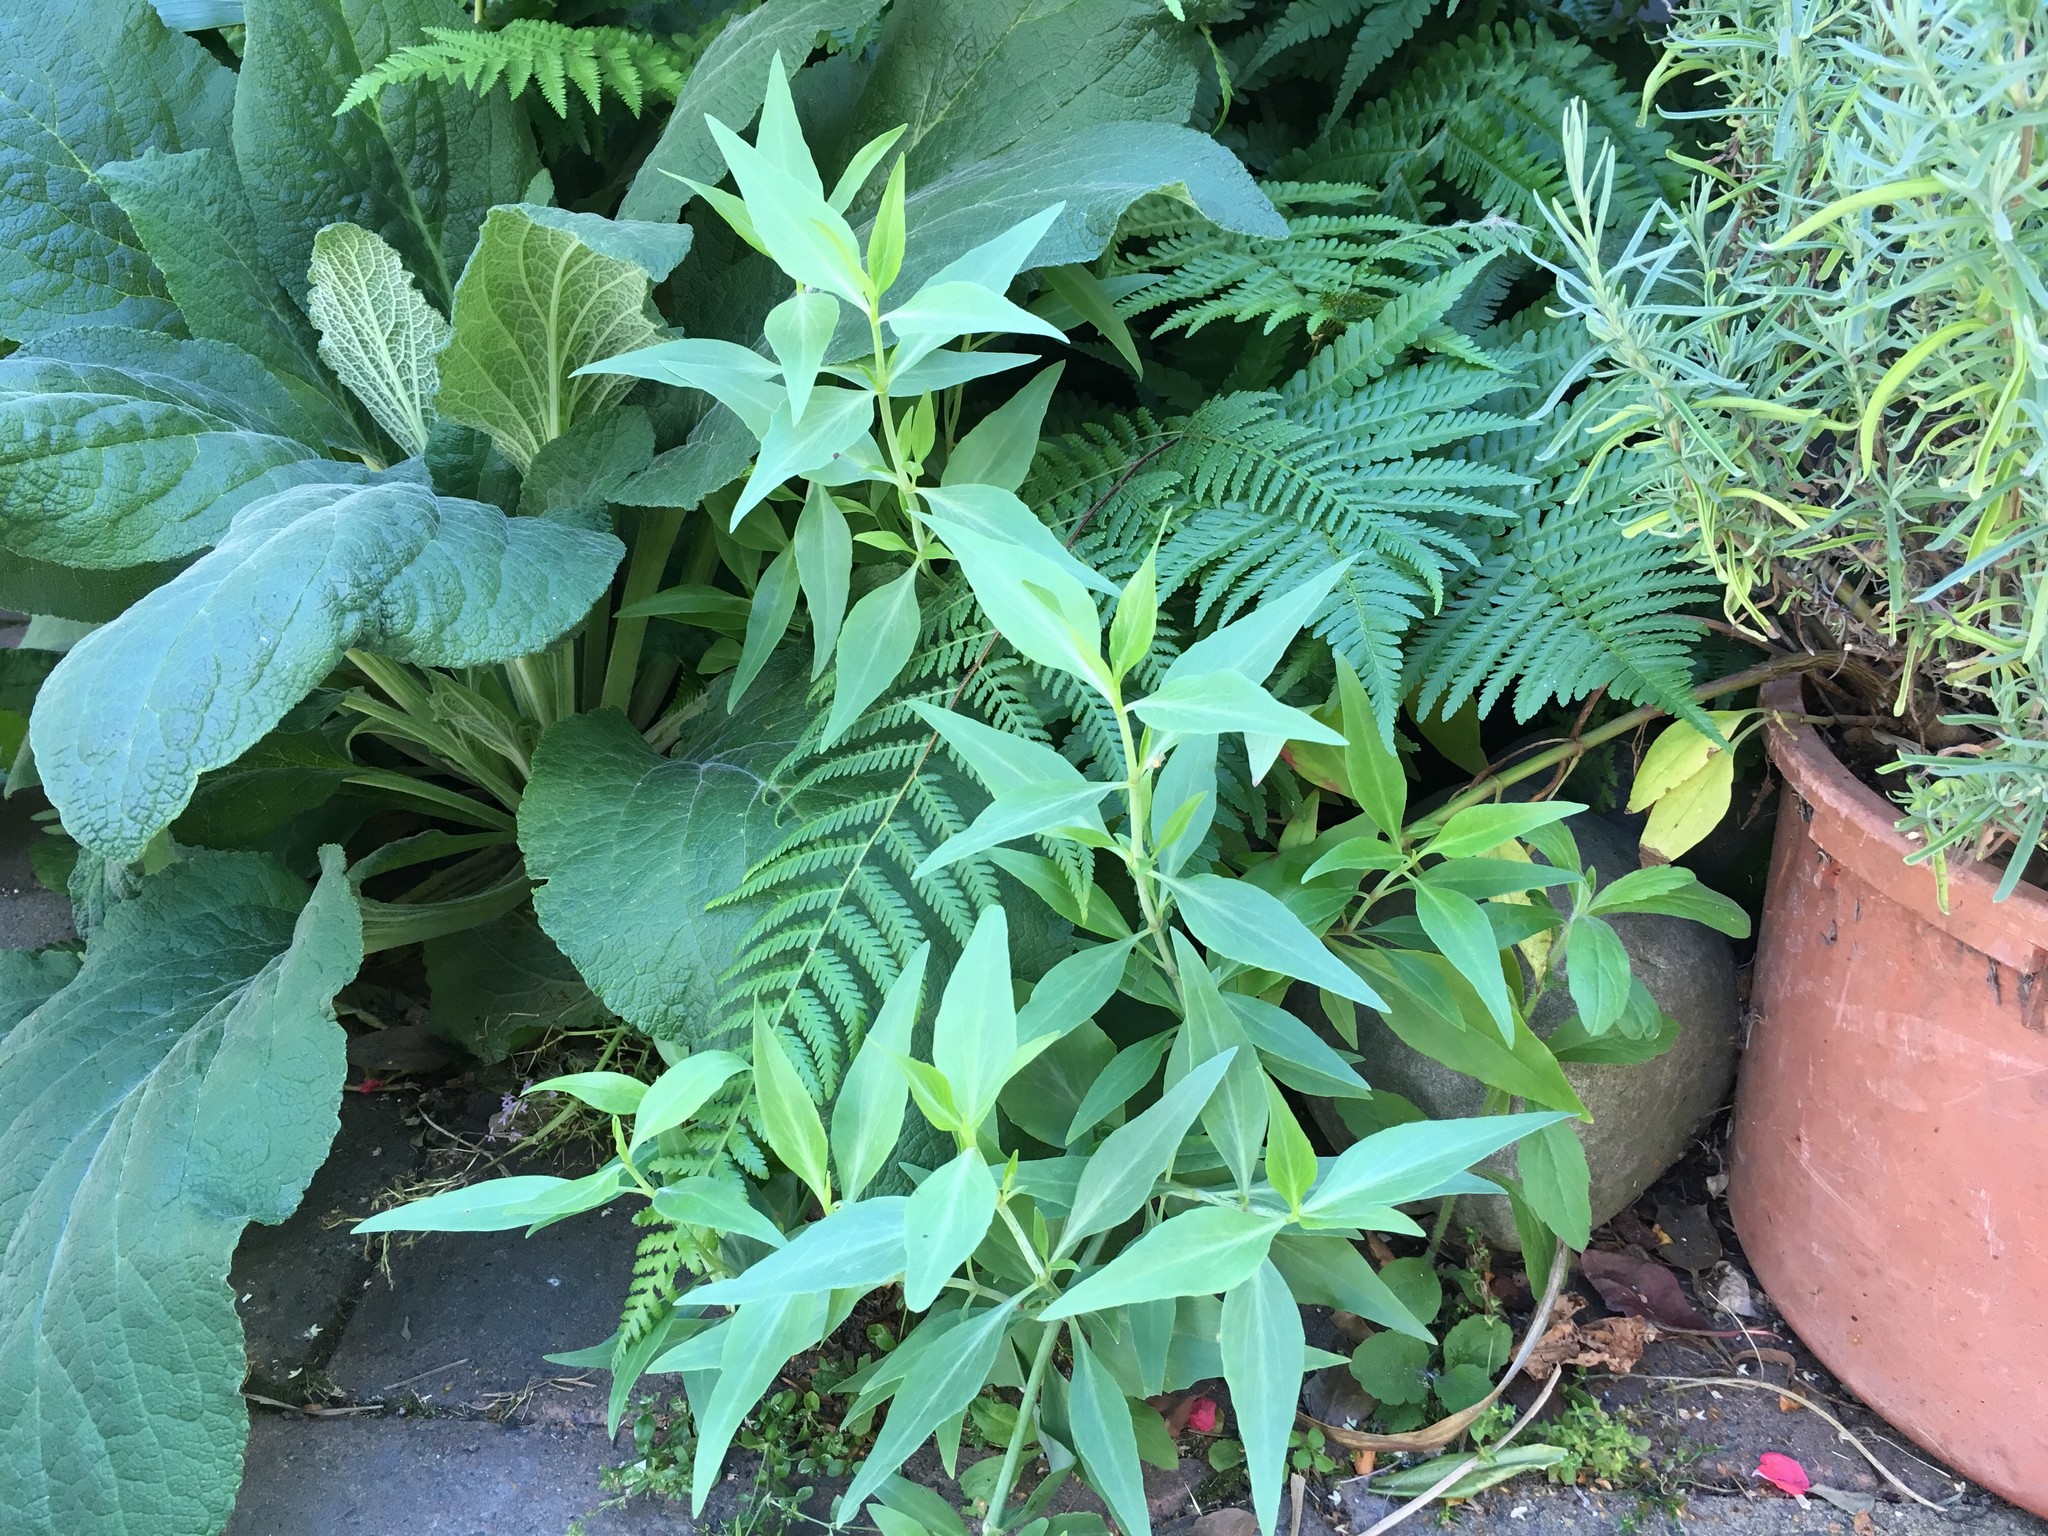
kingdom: Plantae
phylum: Tracheophyta
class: Magnoliopsida
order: Dipsacales
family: Caprifoliaceae
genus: Centranthus
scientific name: Centranthus ruber
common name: Red valerian
